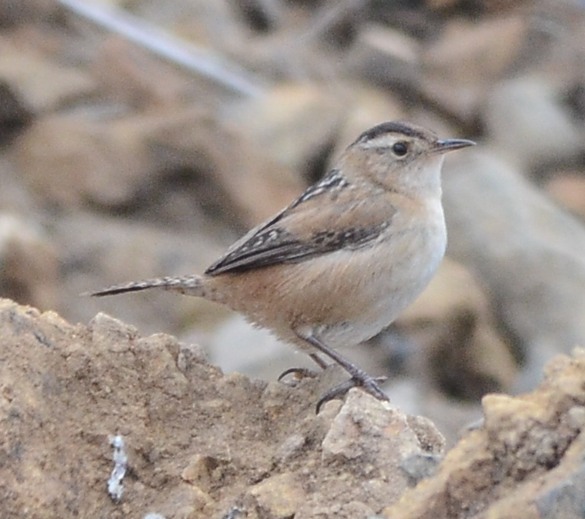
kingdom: Animalia
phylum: Chordata
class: Aves
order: Passeriformes
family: Troglodytidae
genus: Cistothorus
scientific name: Cistothorus palustris
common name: Marsh wren
